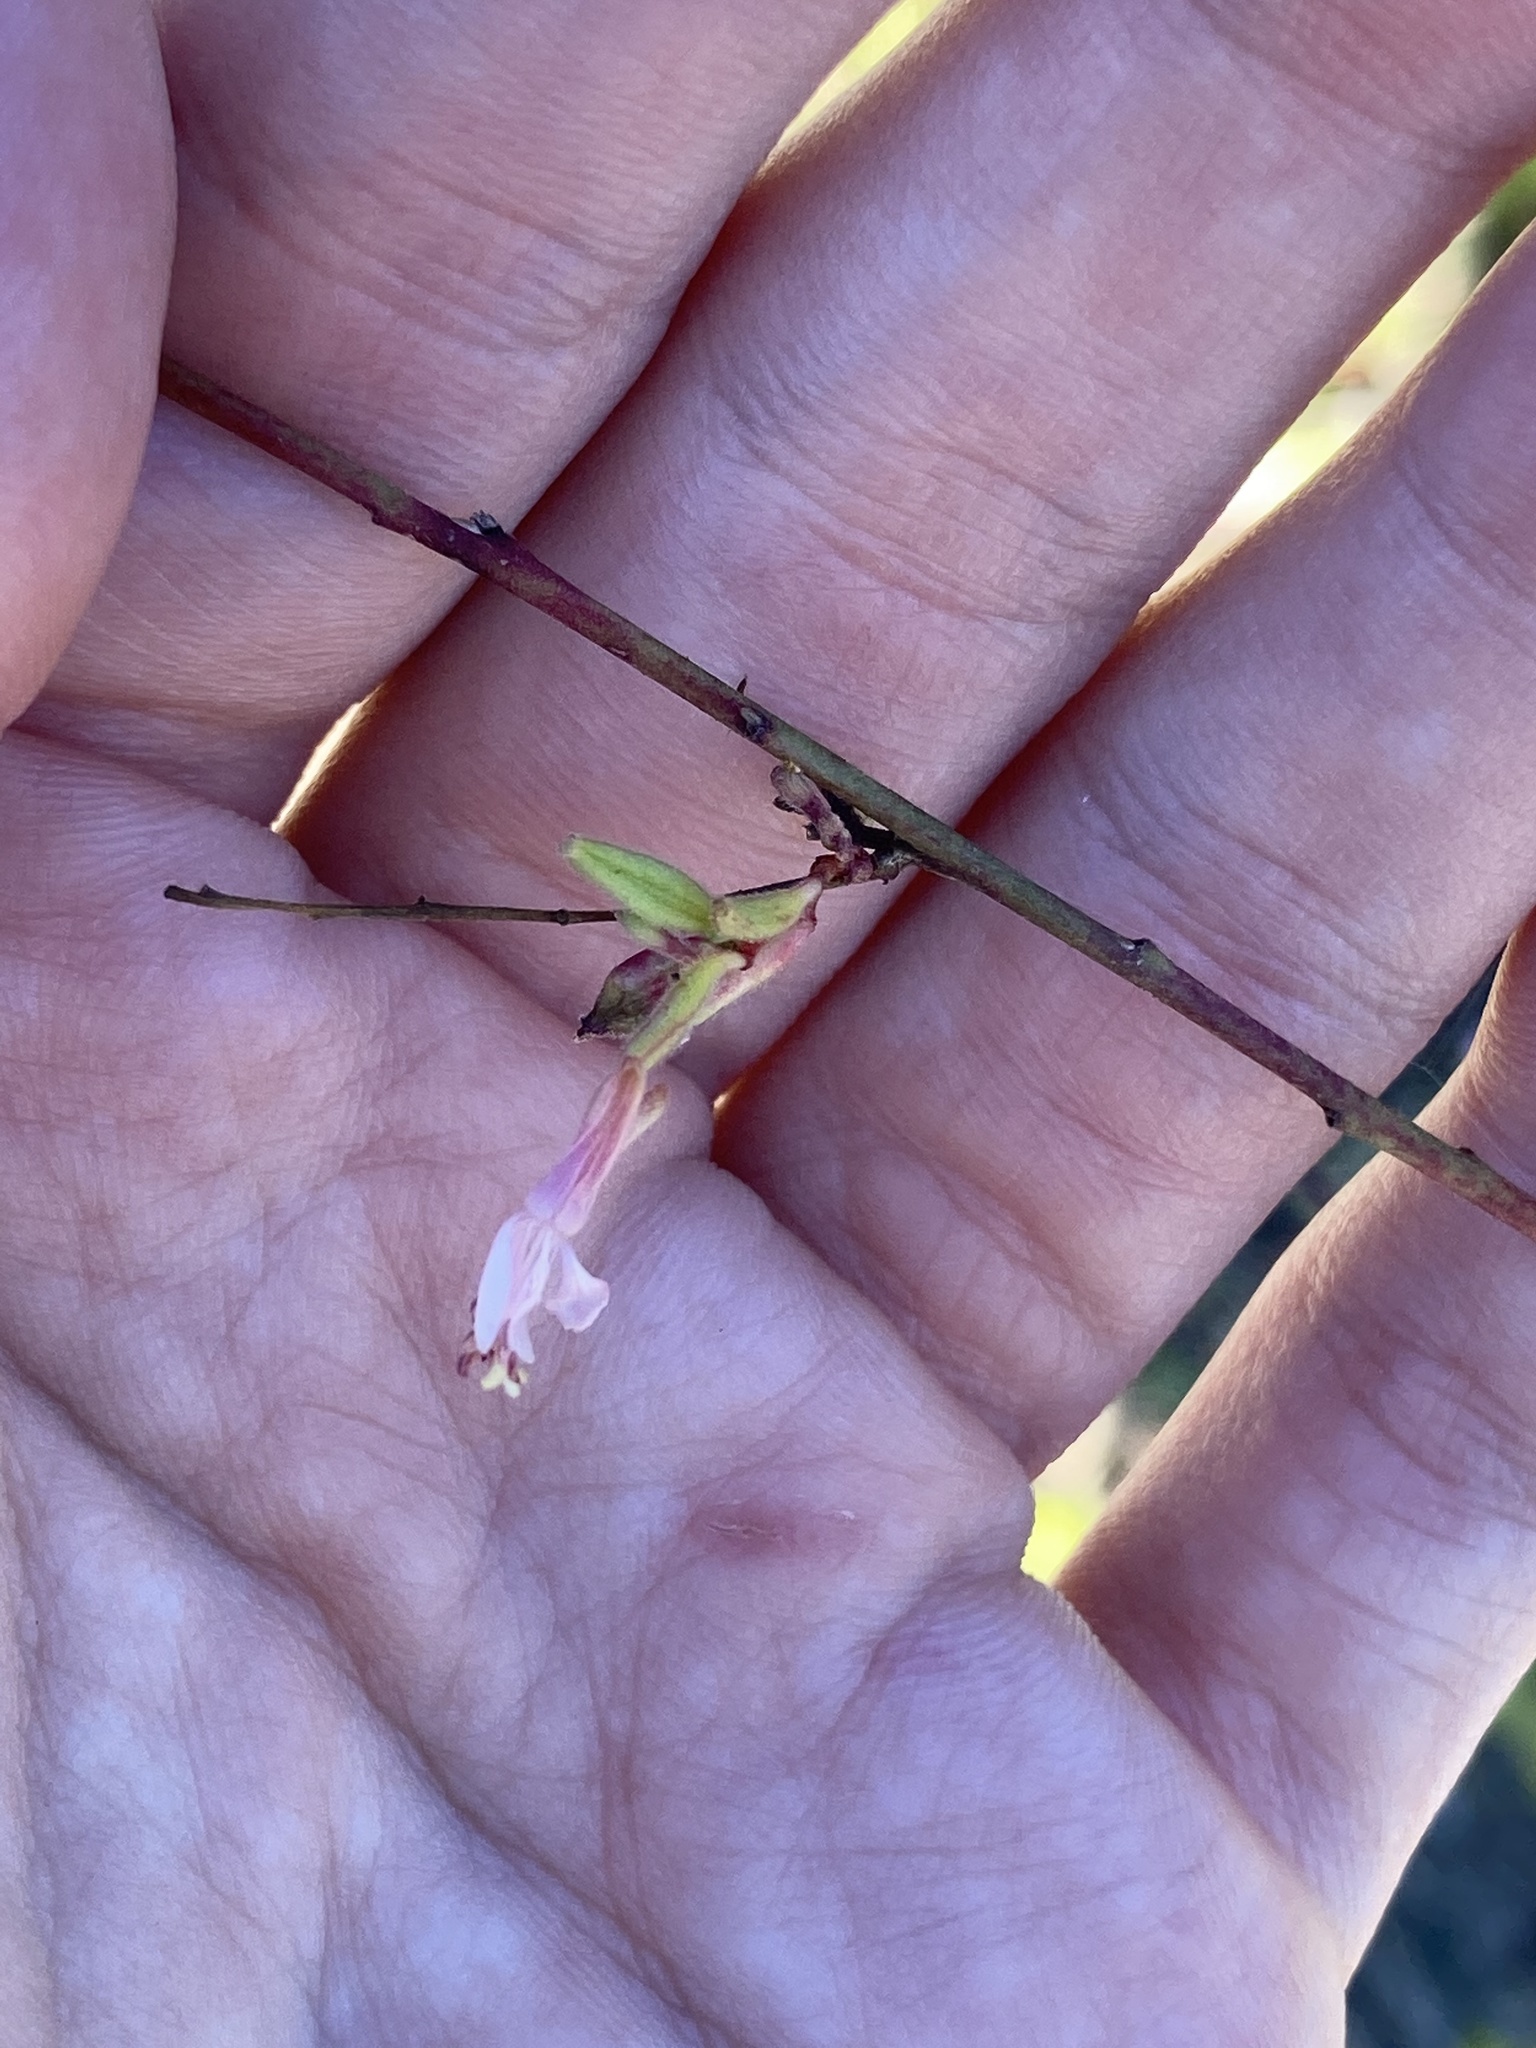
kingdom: Plantae
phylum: Tracheophyta
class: Magnoliopsida
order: Myrtales
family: Onagraceae
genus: Oenothera
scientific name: Oenothera simulans
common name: Southern beeblossom
